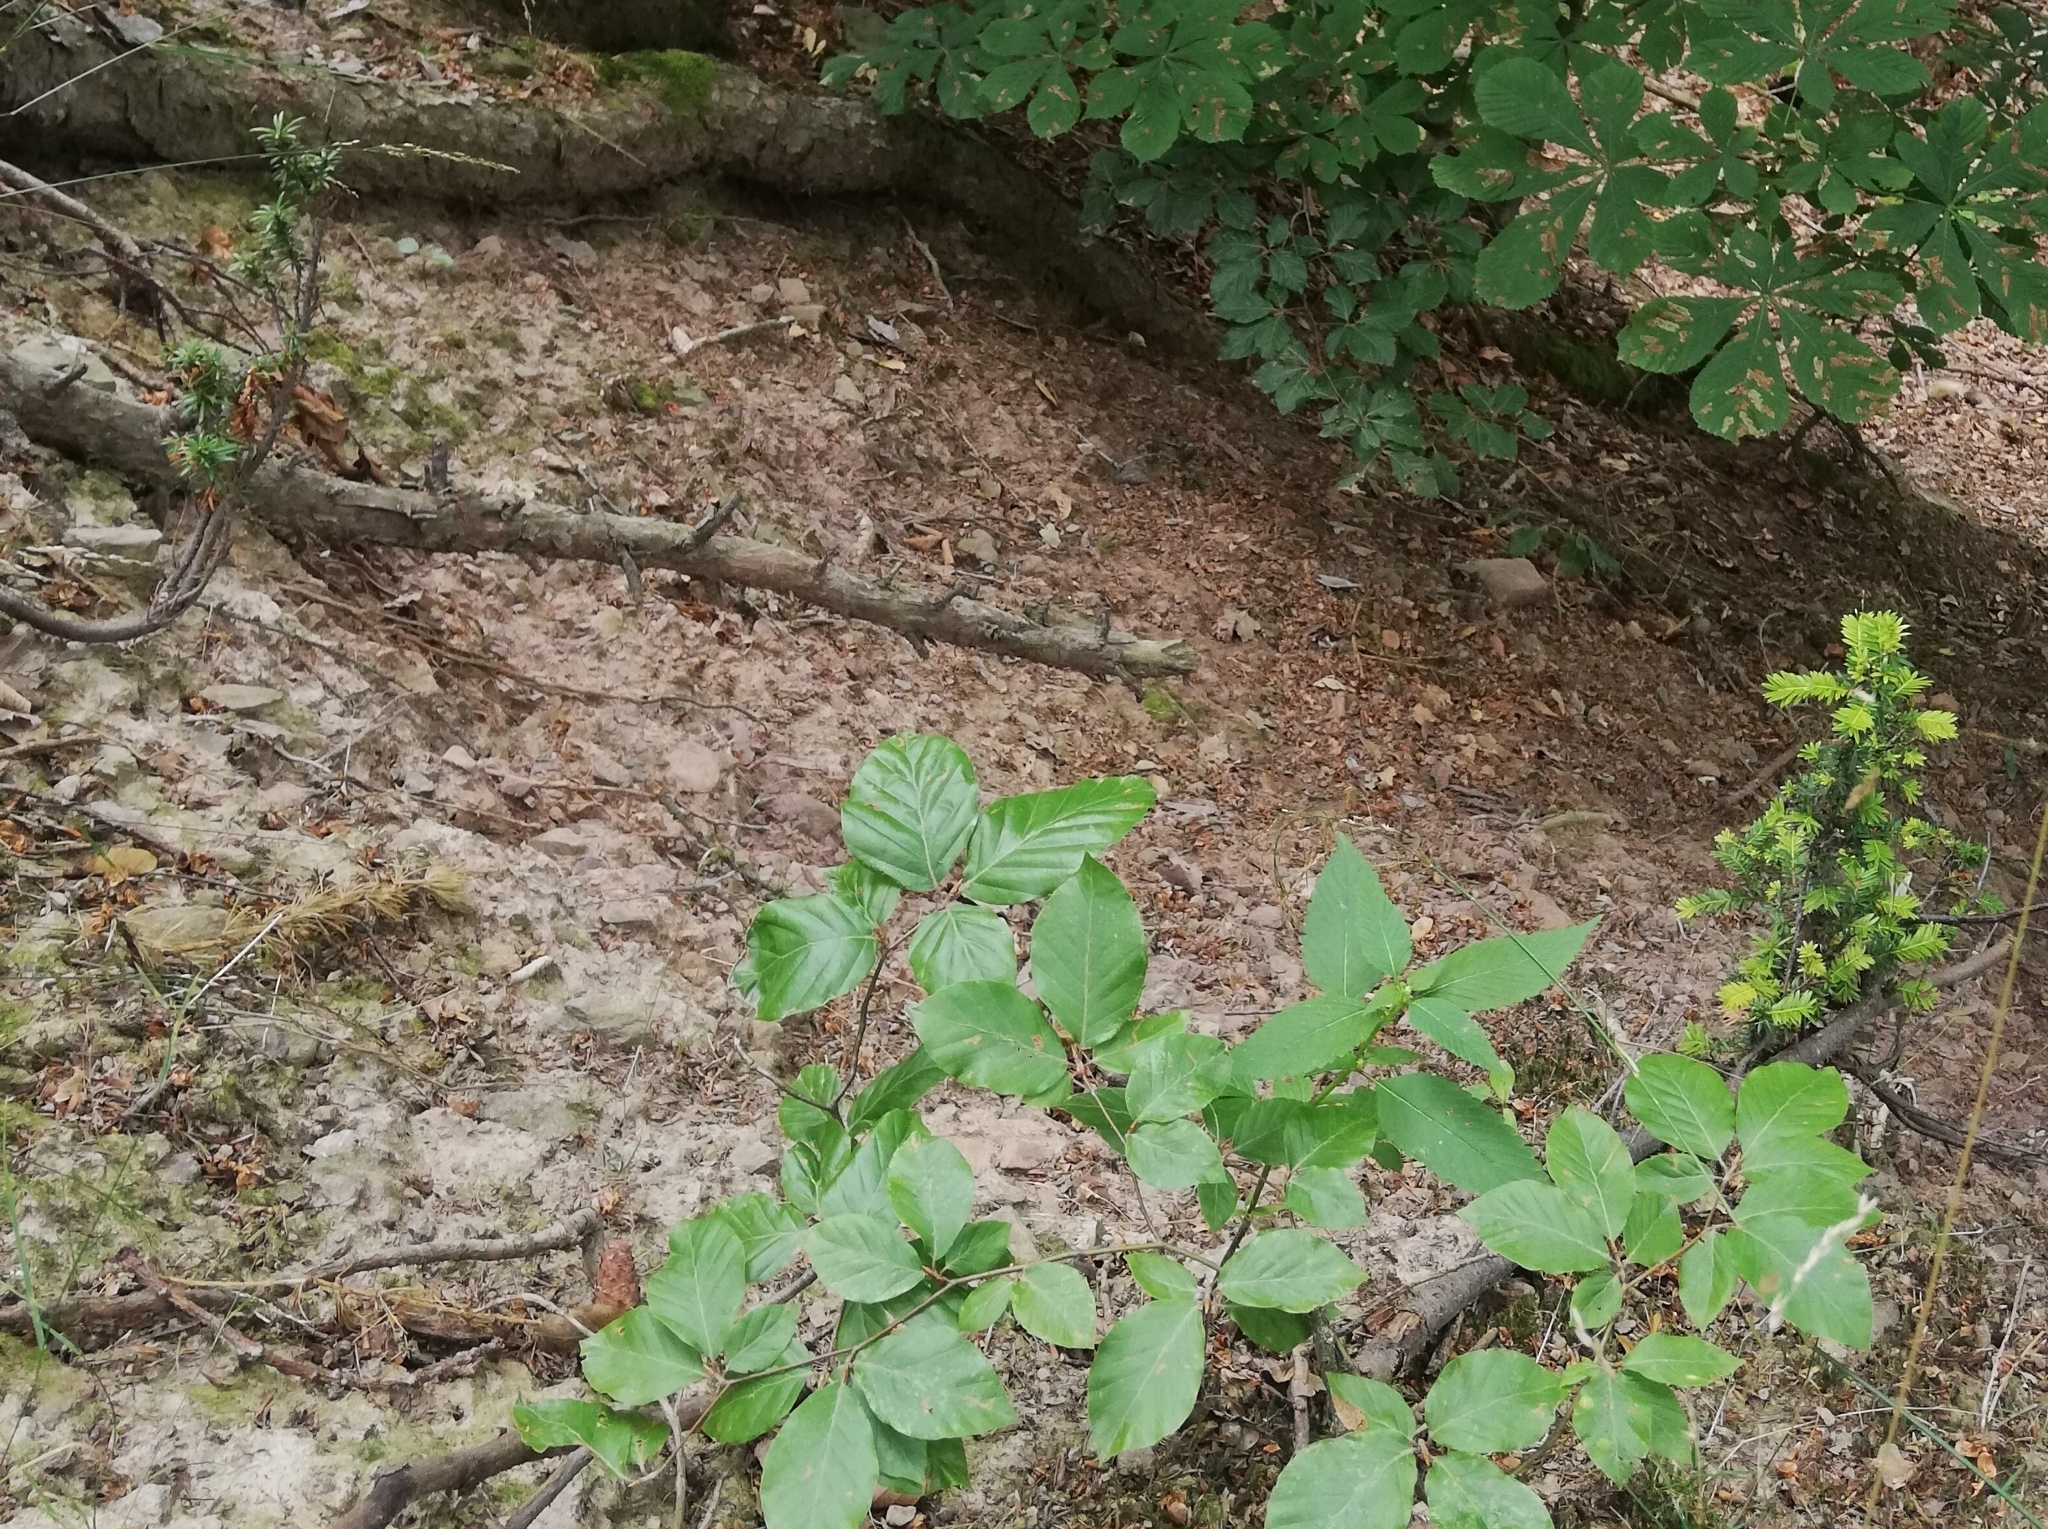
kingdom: Plantae
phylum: Tracheophyta
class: Pinopsida
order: Pinales
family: Taxaceae
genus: Taxus
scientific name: Taxus baccata
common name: Yew
